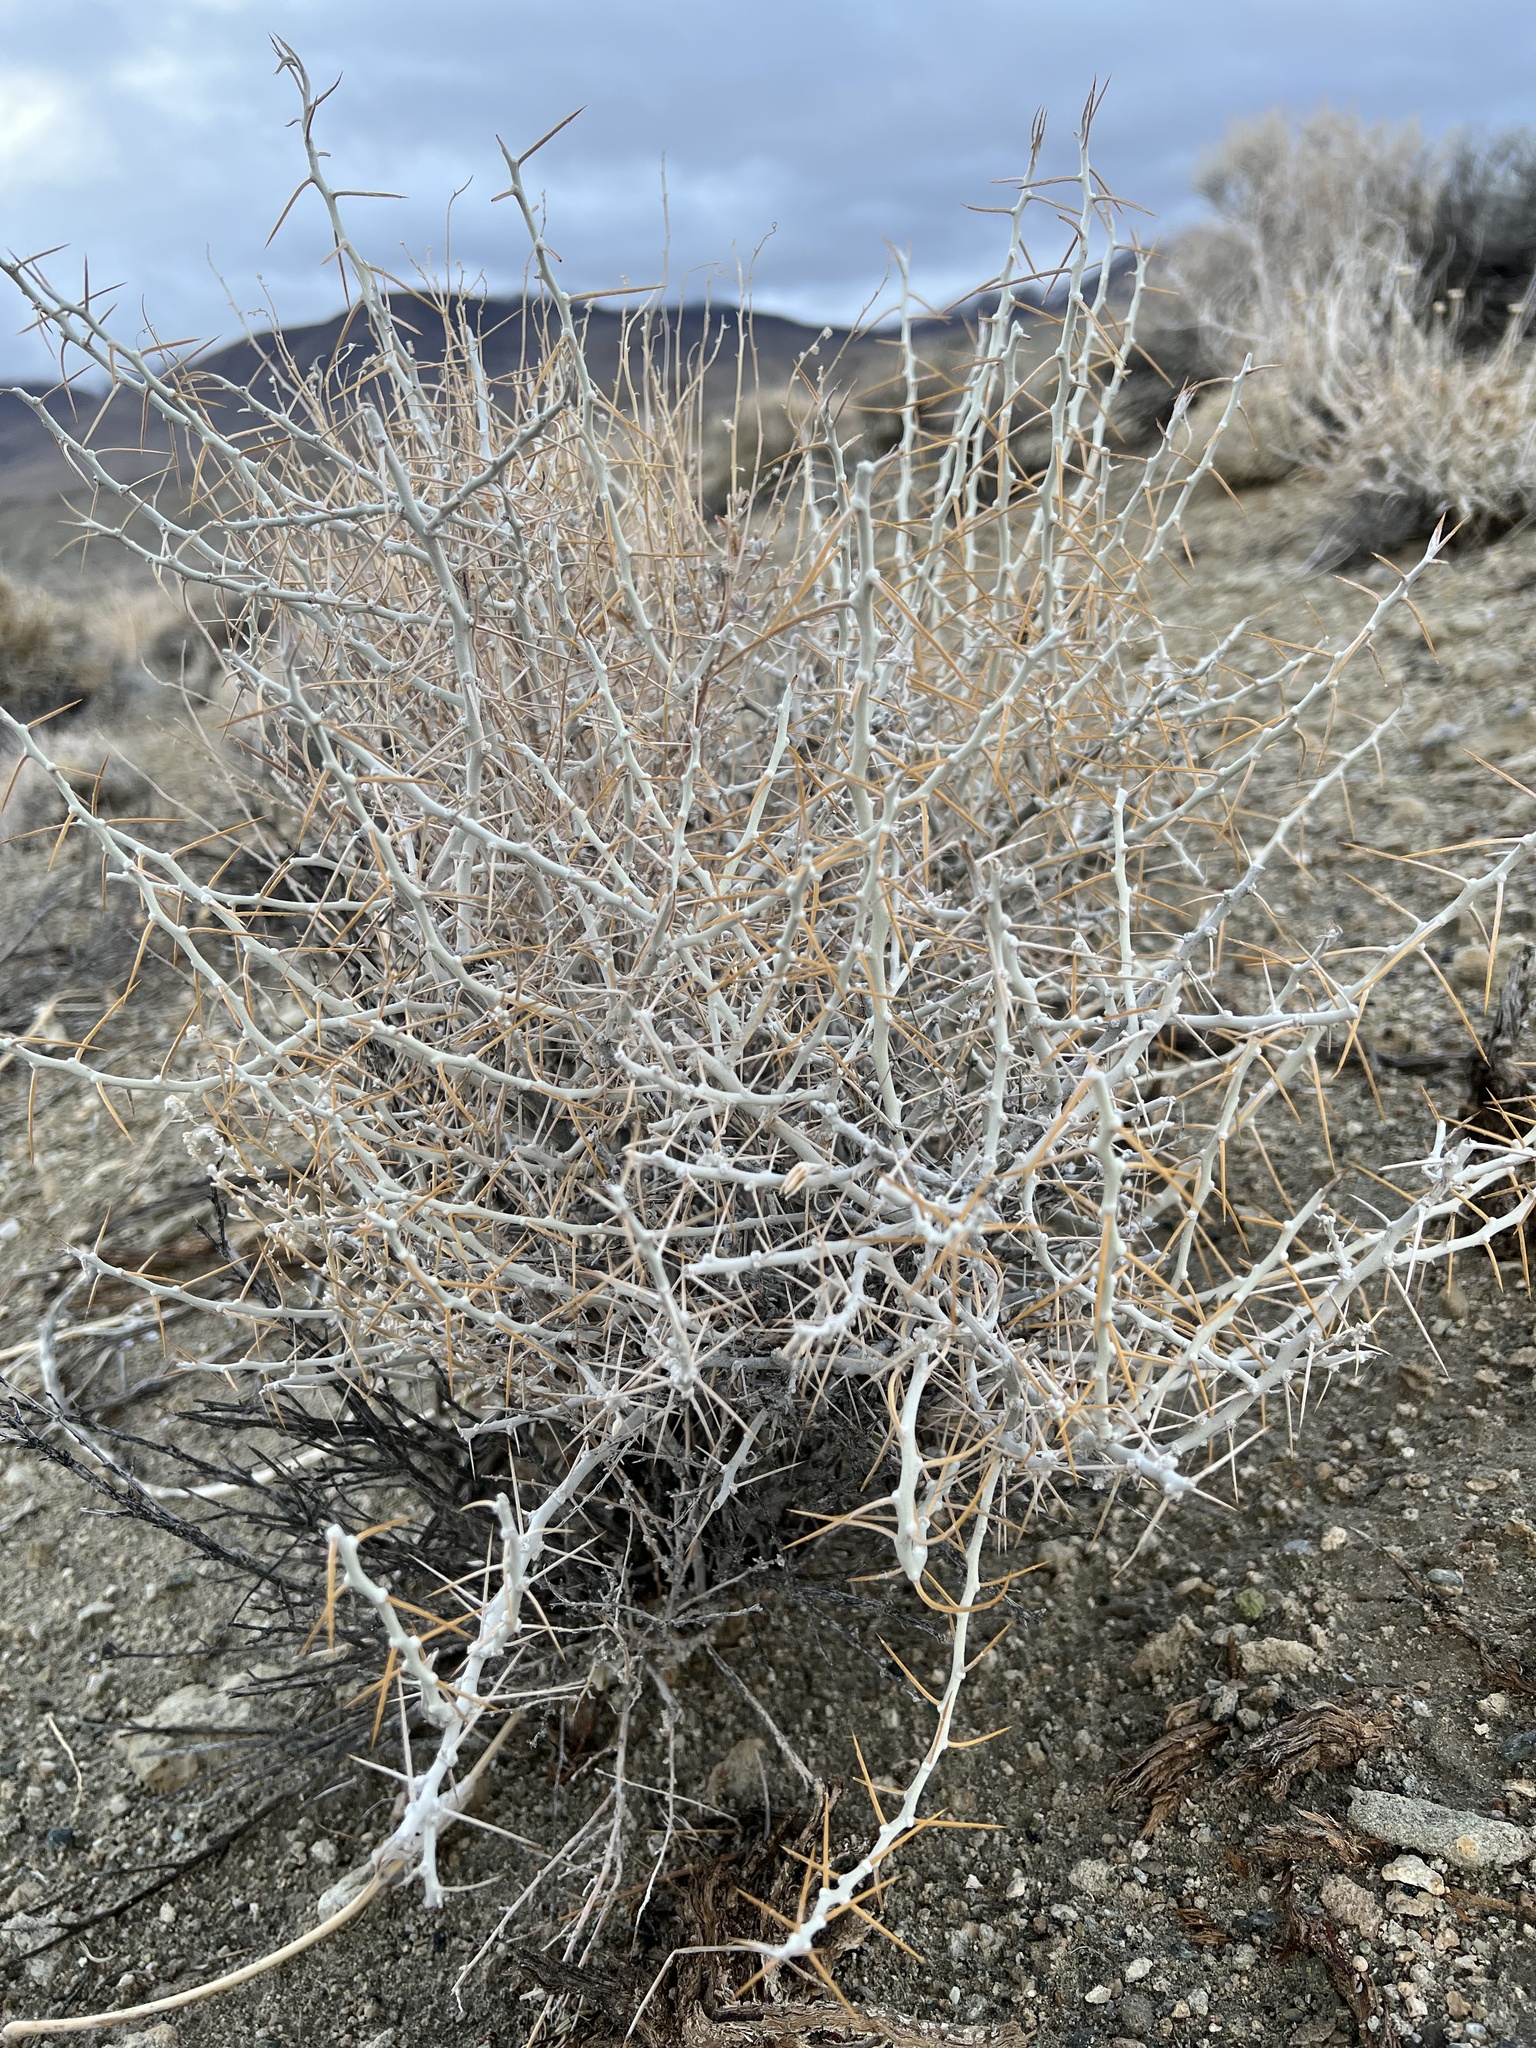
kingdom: Plantae
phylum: Tracheophyta
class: Magnoliopsida
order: Asterales
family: Asteraceae
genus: Tetradymia
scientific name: Tetradymia axillaris
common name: Long-spine horsebrush
